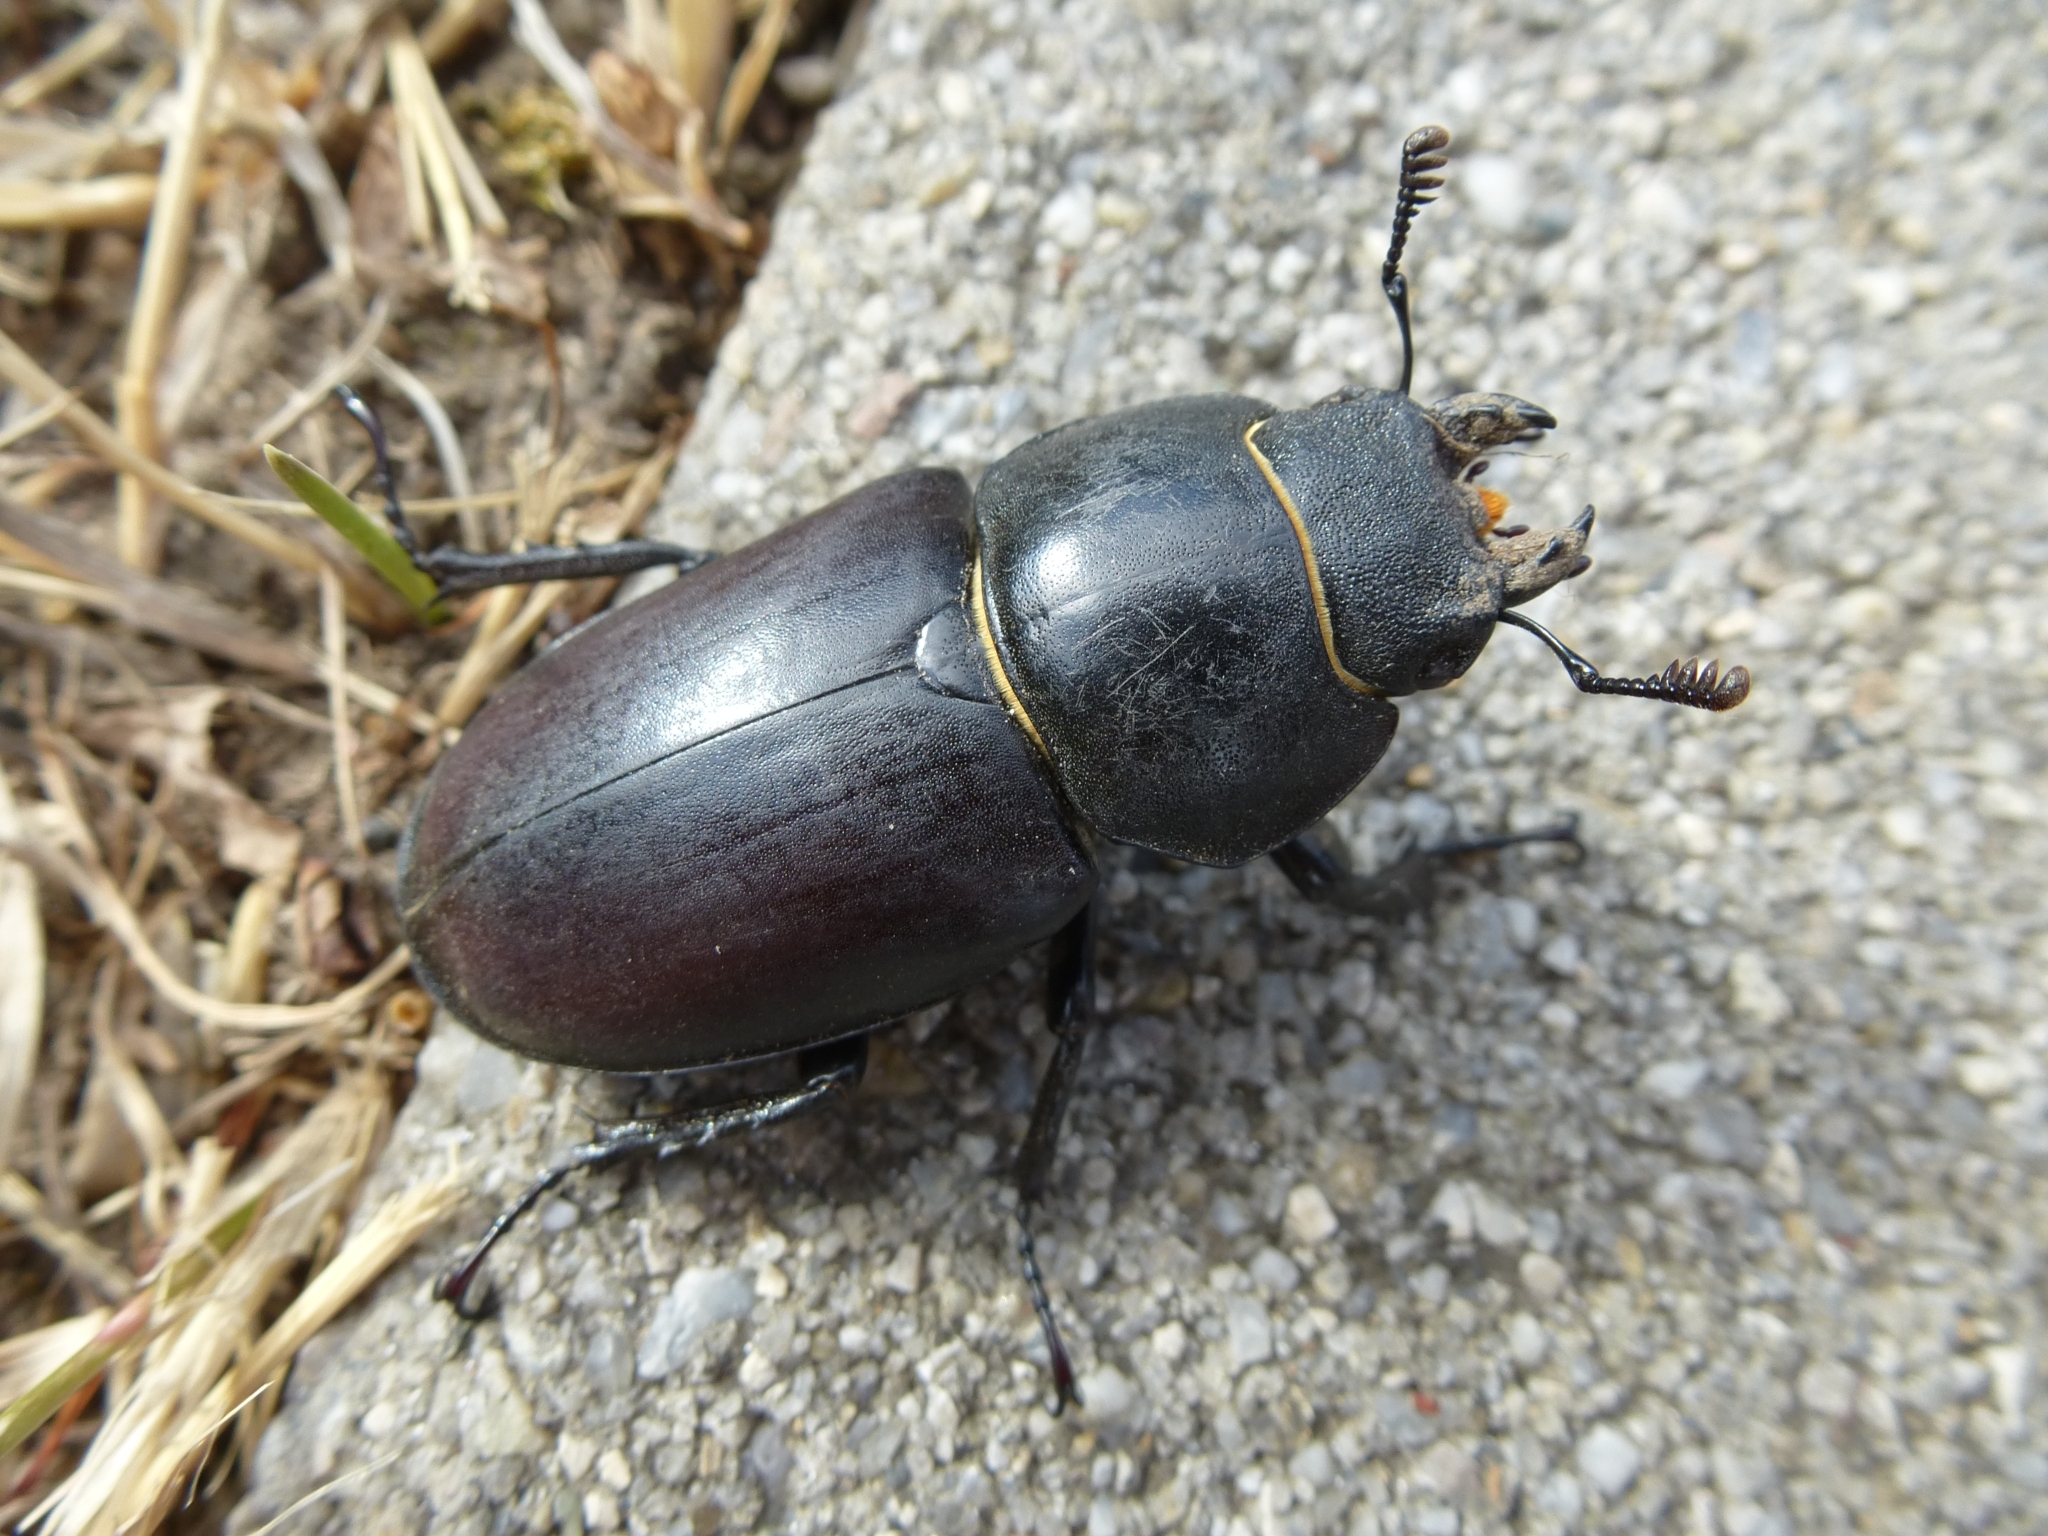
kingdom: Animalia
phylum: Arthropoda
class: Insecta
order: Coleoptera
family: Lucanidae
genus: Lucanus
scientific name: Lucanus cervus
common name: Stag beetle
